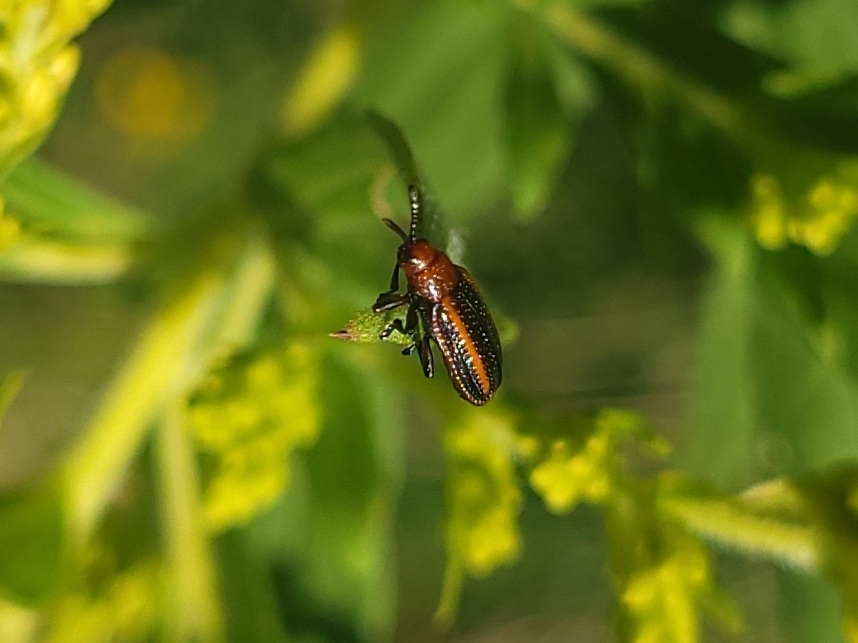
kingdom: Animalia
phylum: Arthropoda
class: Insecta
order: Coleoptera
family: Chrysomelidae
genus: Microrhopala
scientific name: Microrhopala vittata
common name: Goldenrod leaf miner beetle
